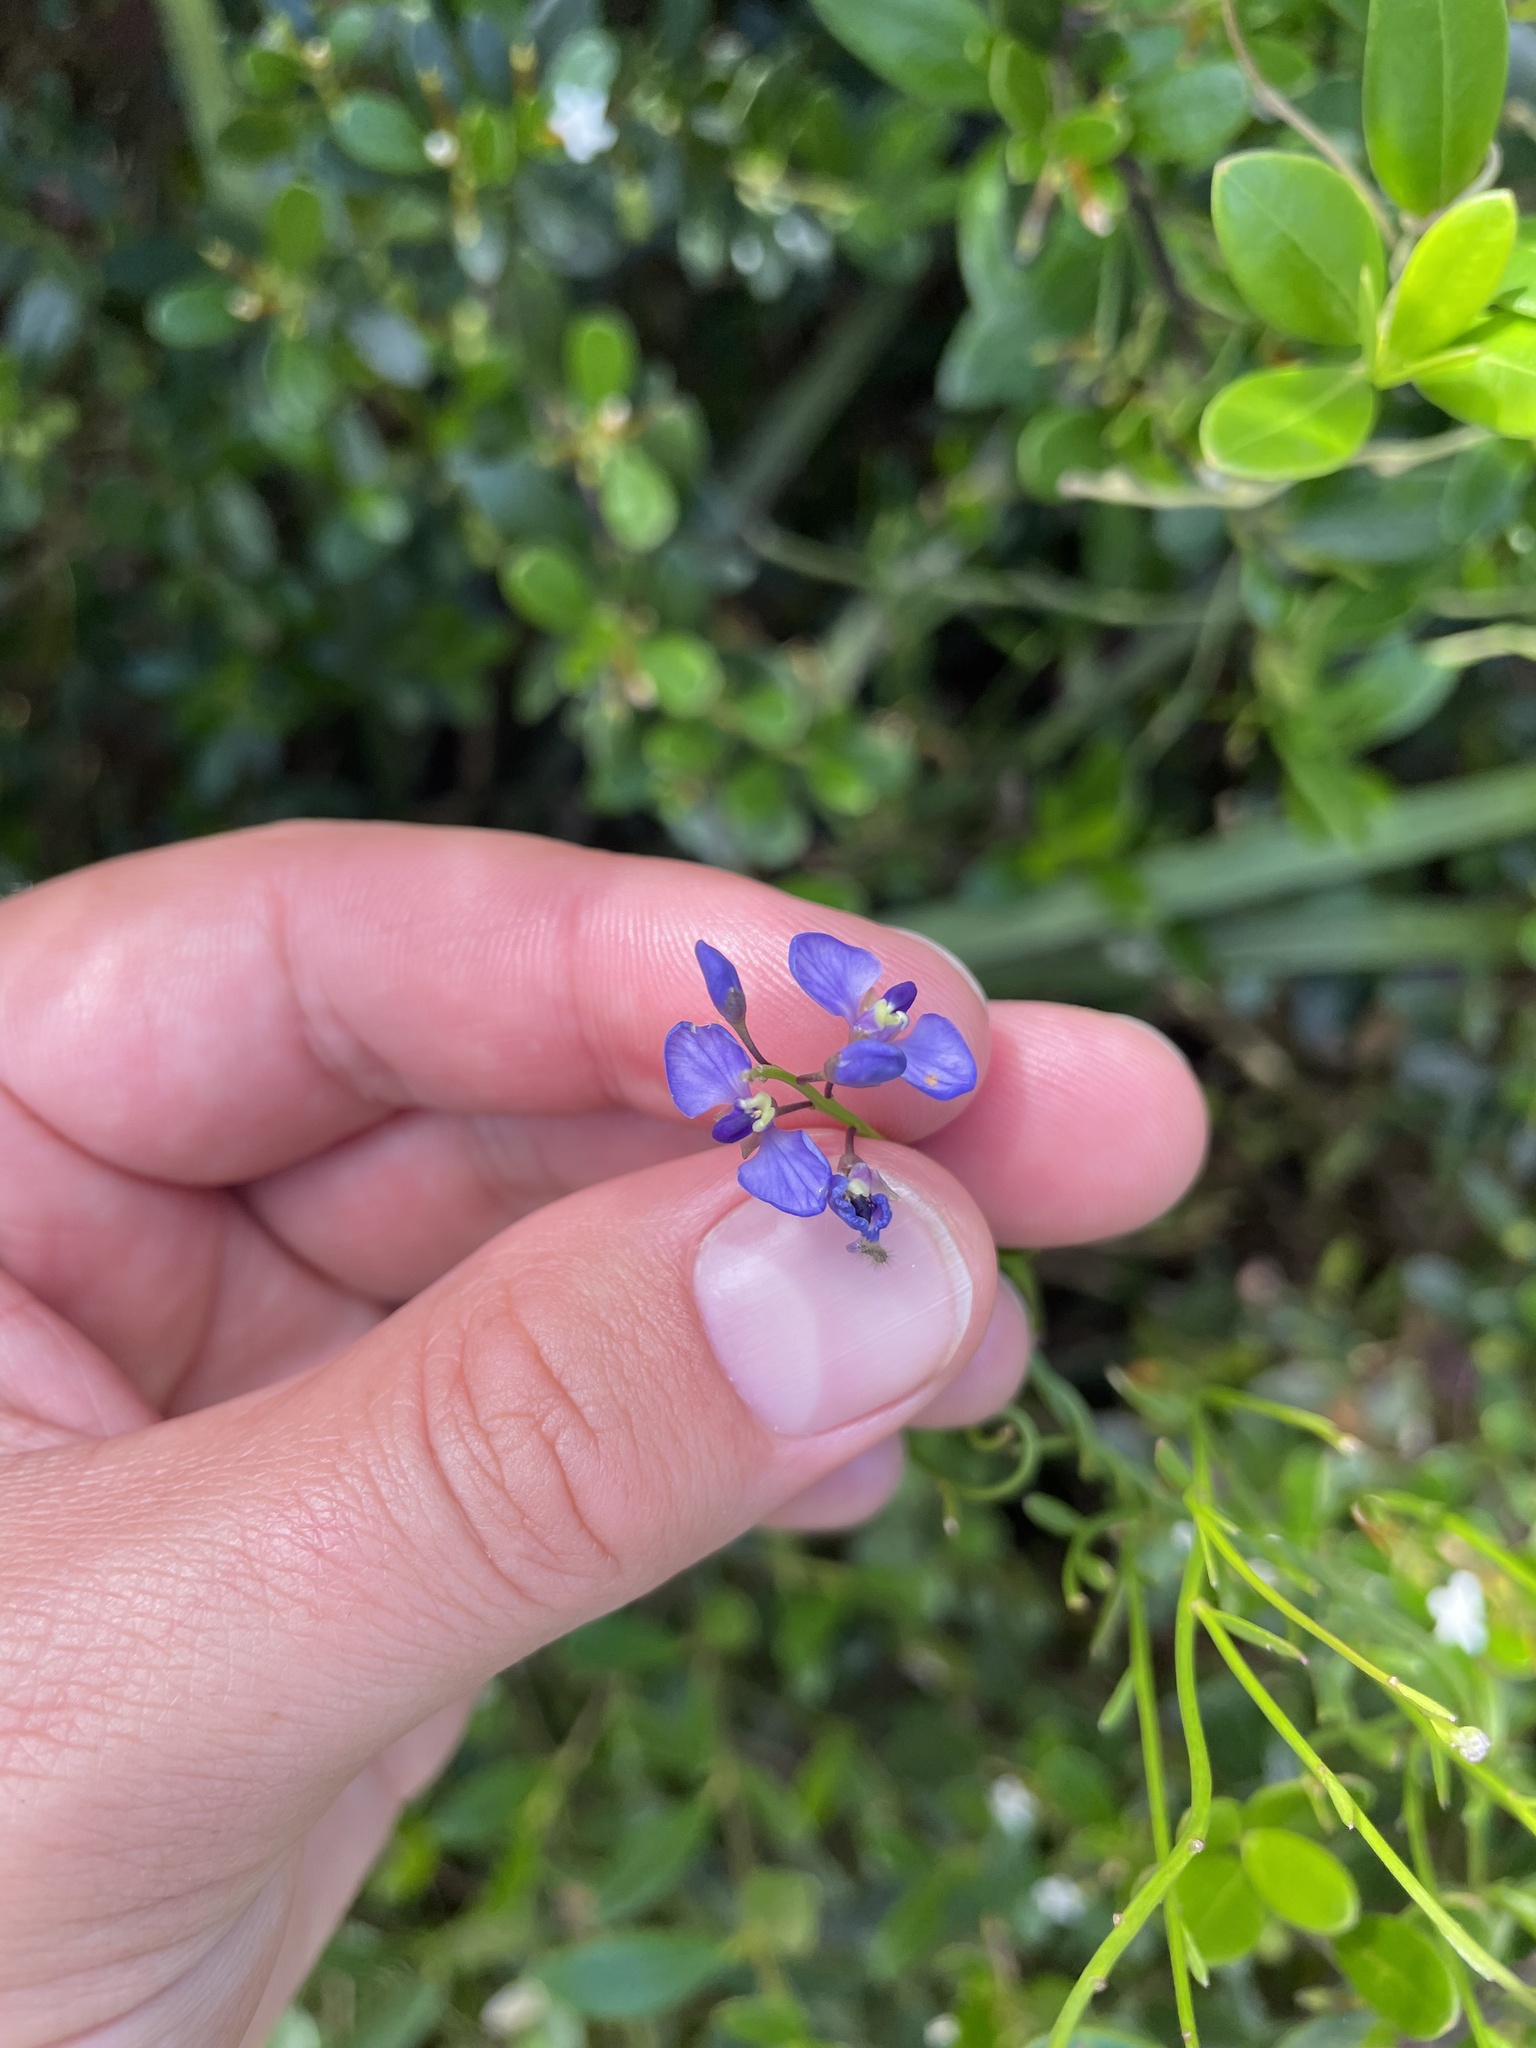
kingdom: Plantae
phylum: Tracheophyta
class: Magnoliopsida
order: Fabales
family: Polygalaceae
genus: Comesperma
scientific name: Comesperma volubile
